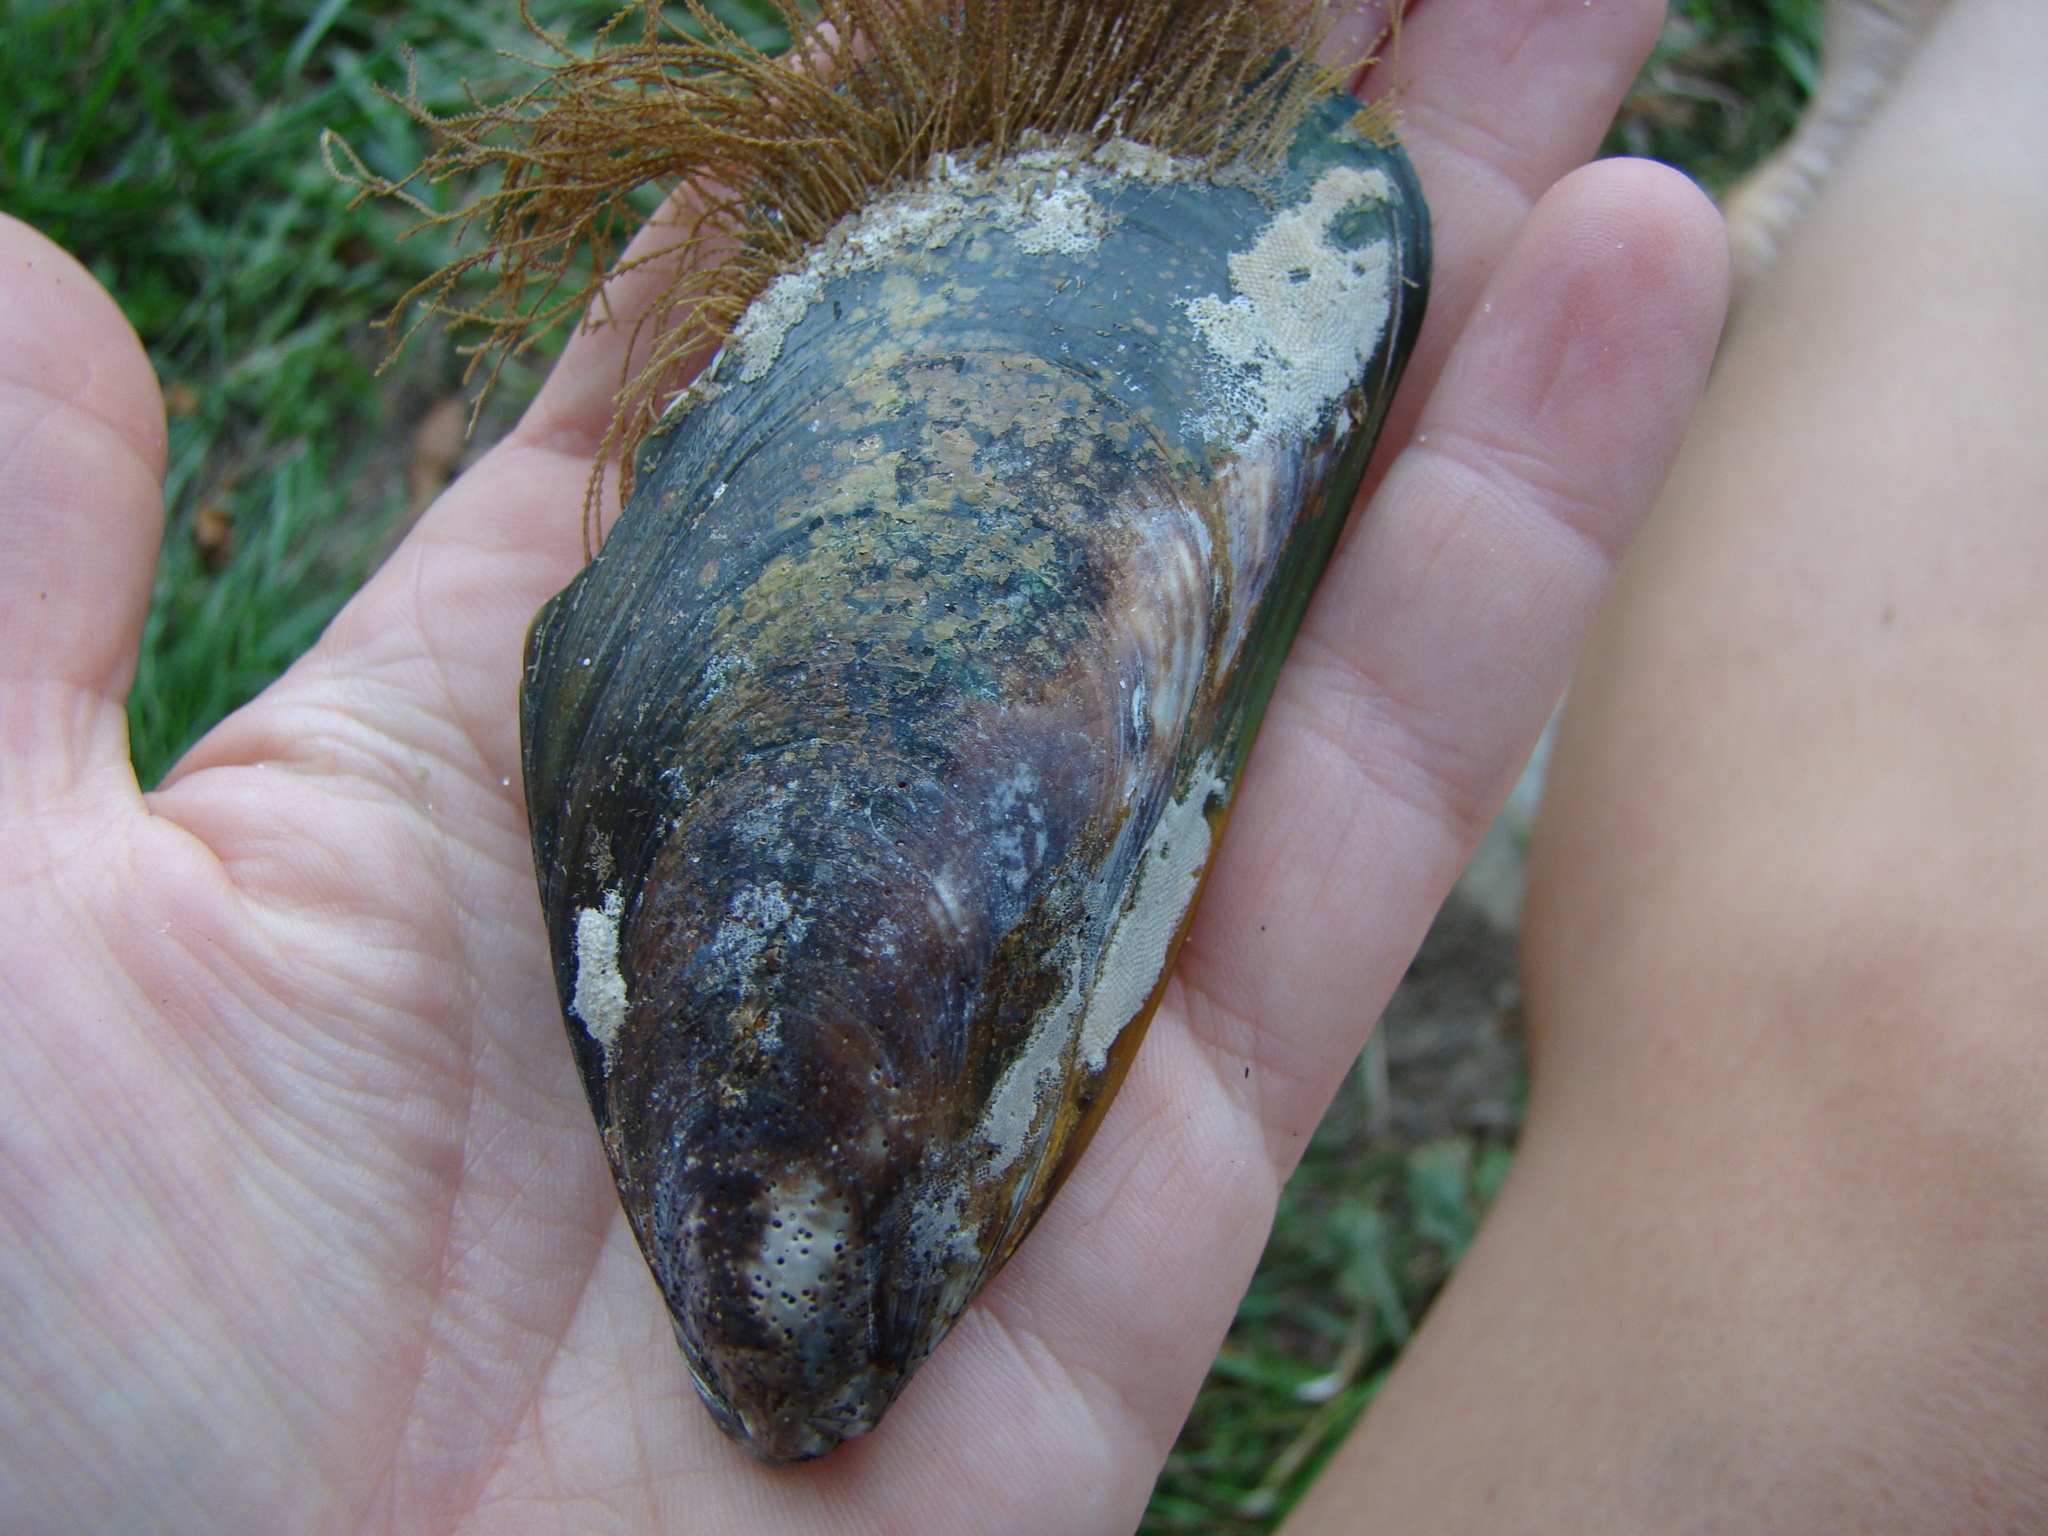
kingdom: Animalia
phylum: Mollusca
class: Bivalvia
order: Mytilida
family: Mytilidae
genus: Perna
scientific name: Perna canaliculus
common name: New zealand greenshelltm
